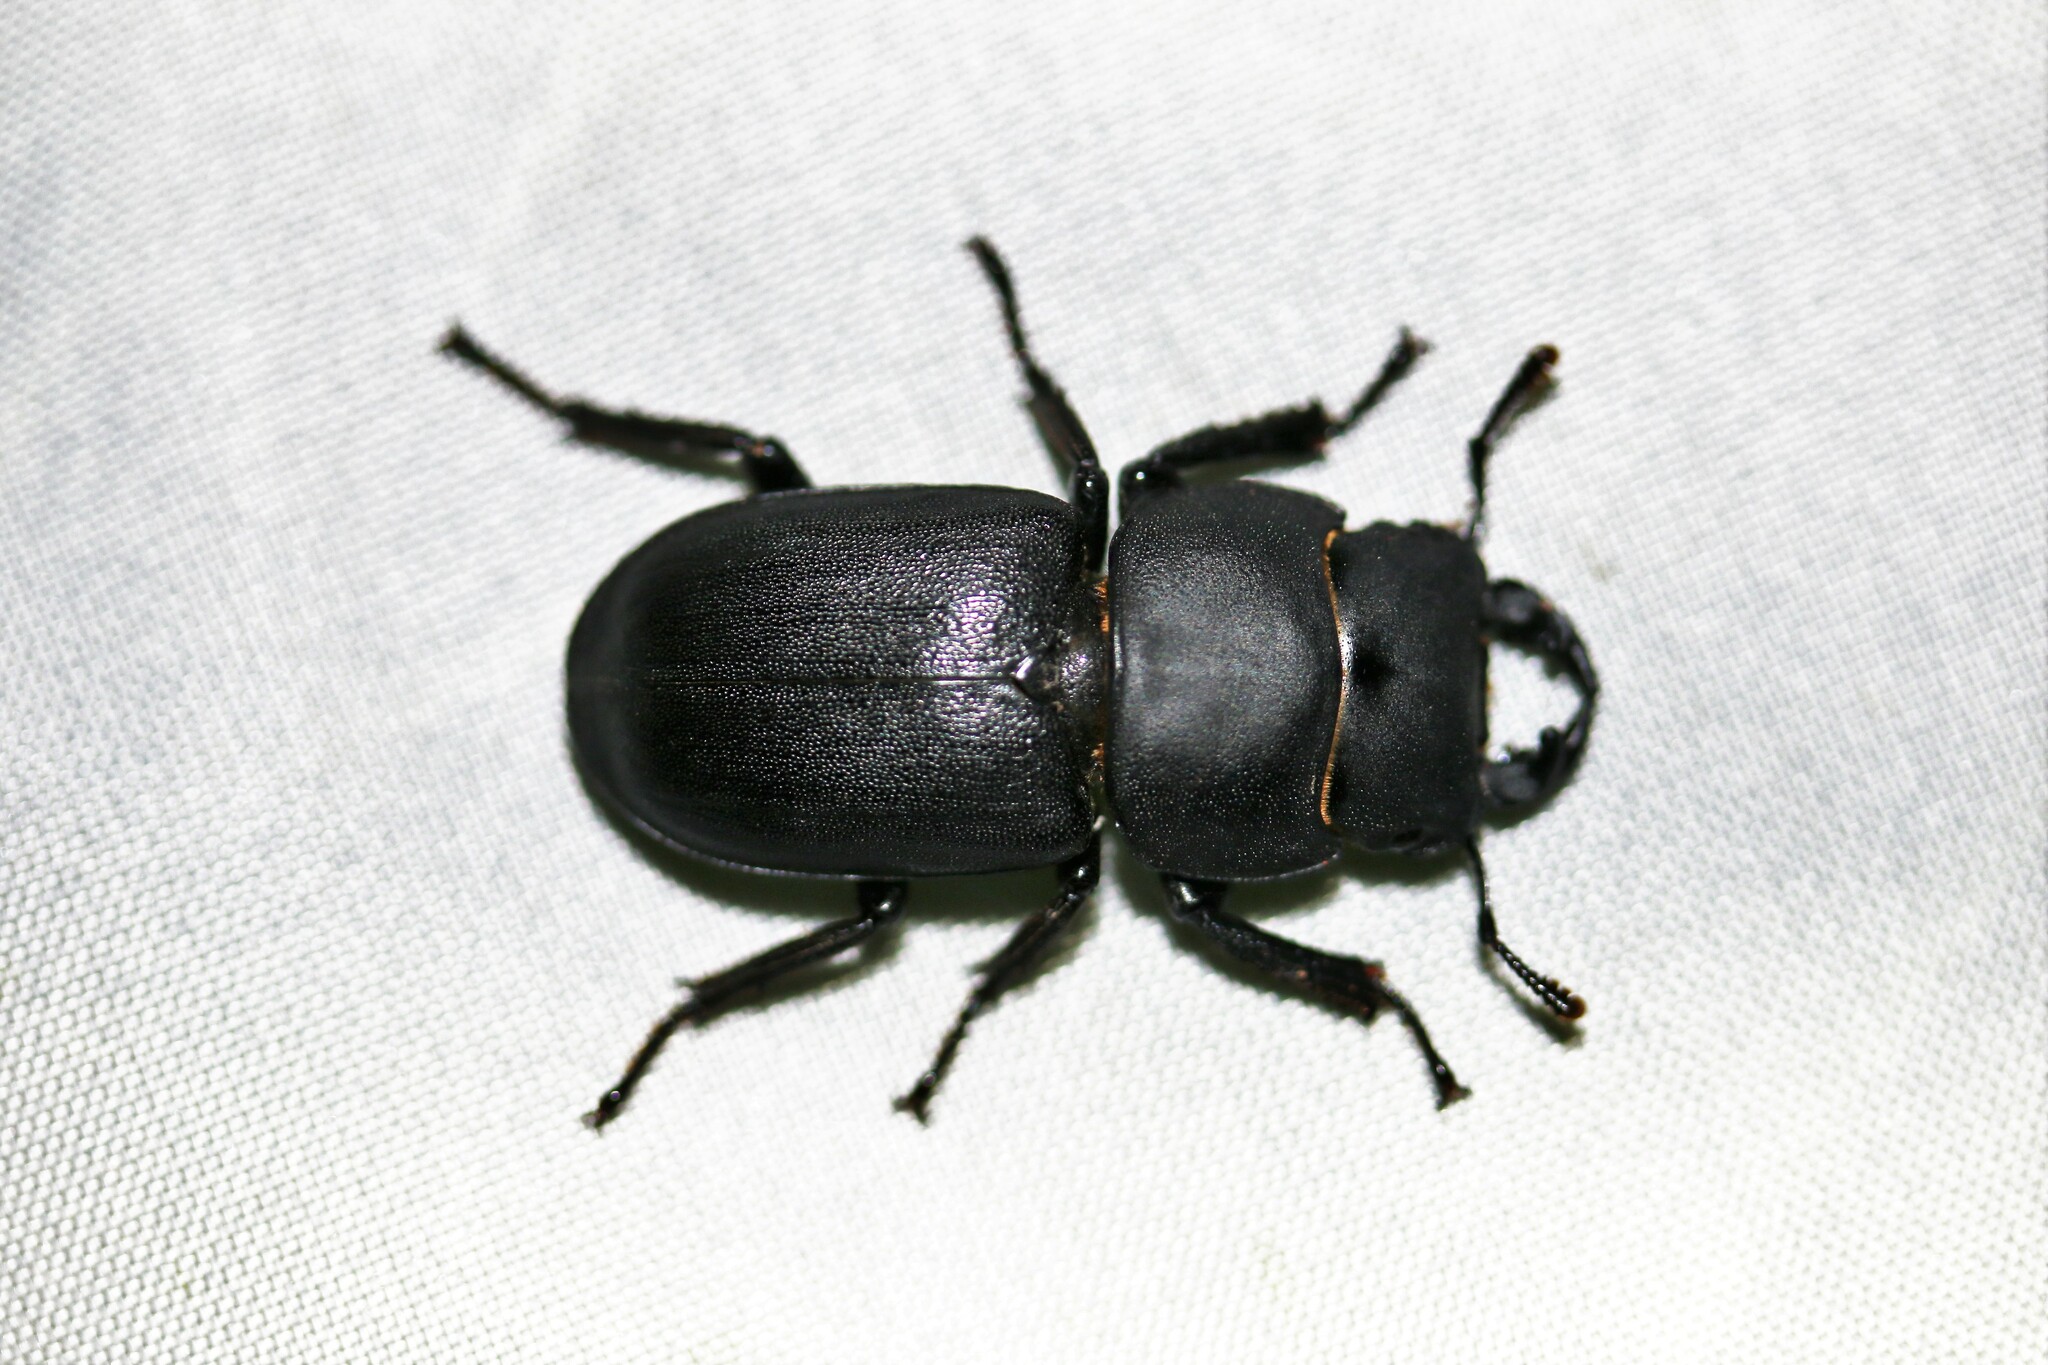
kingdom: Animalia
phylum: Arthropoda
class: Insecta
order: Coleoptera
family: Lucanidae
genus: Dorcus
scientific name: Dorcus parallelipipedus
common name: Lesser stag beetle
